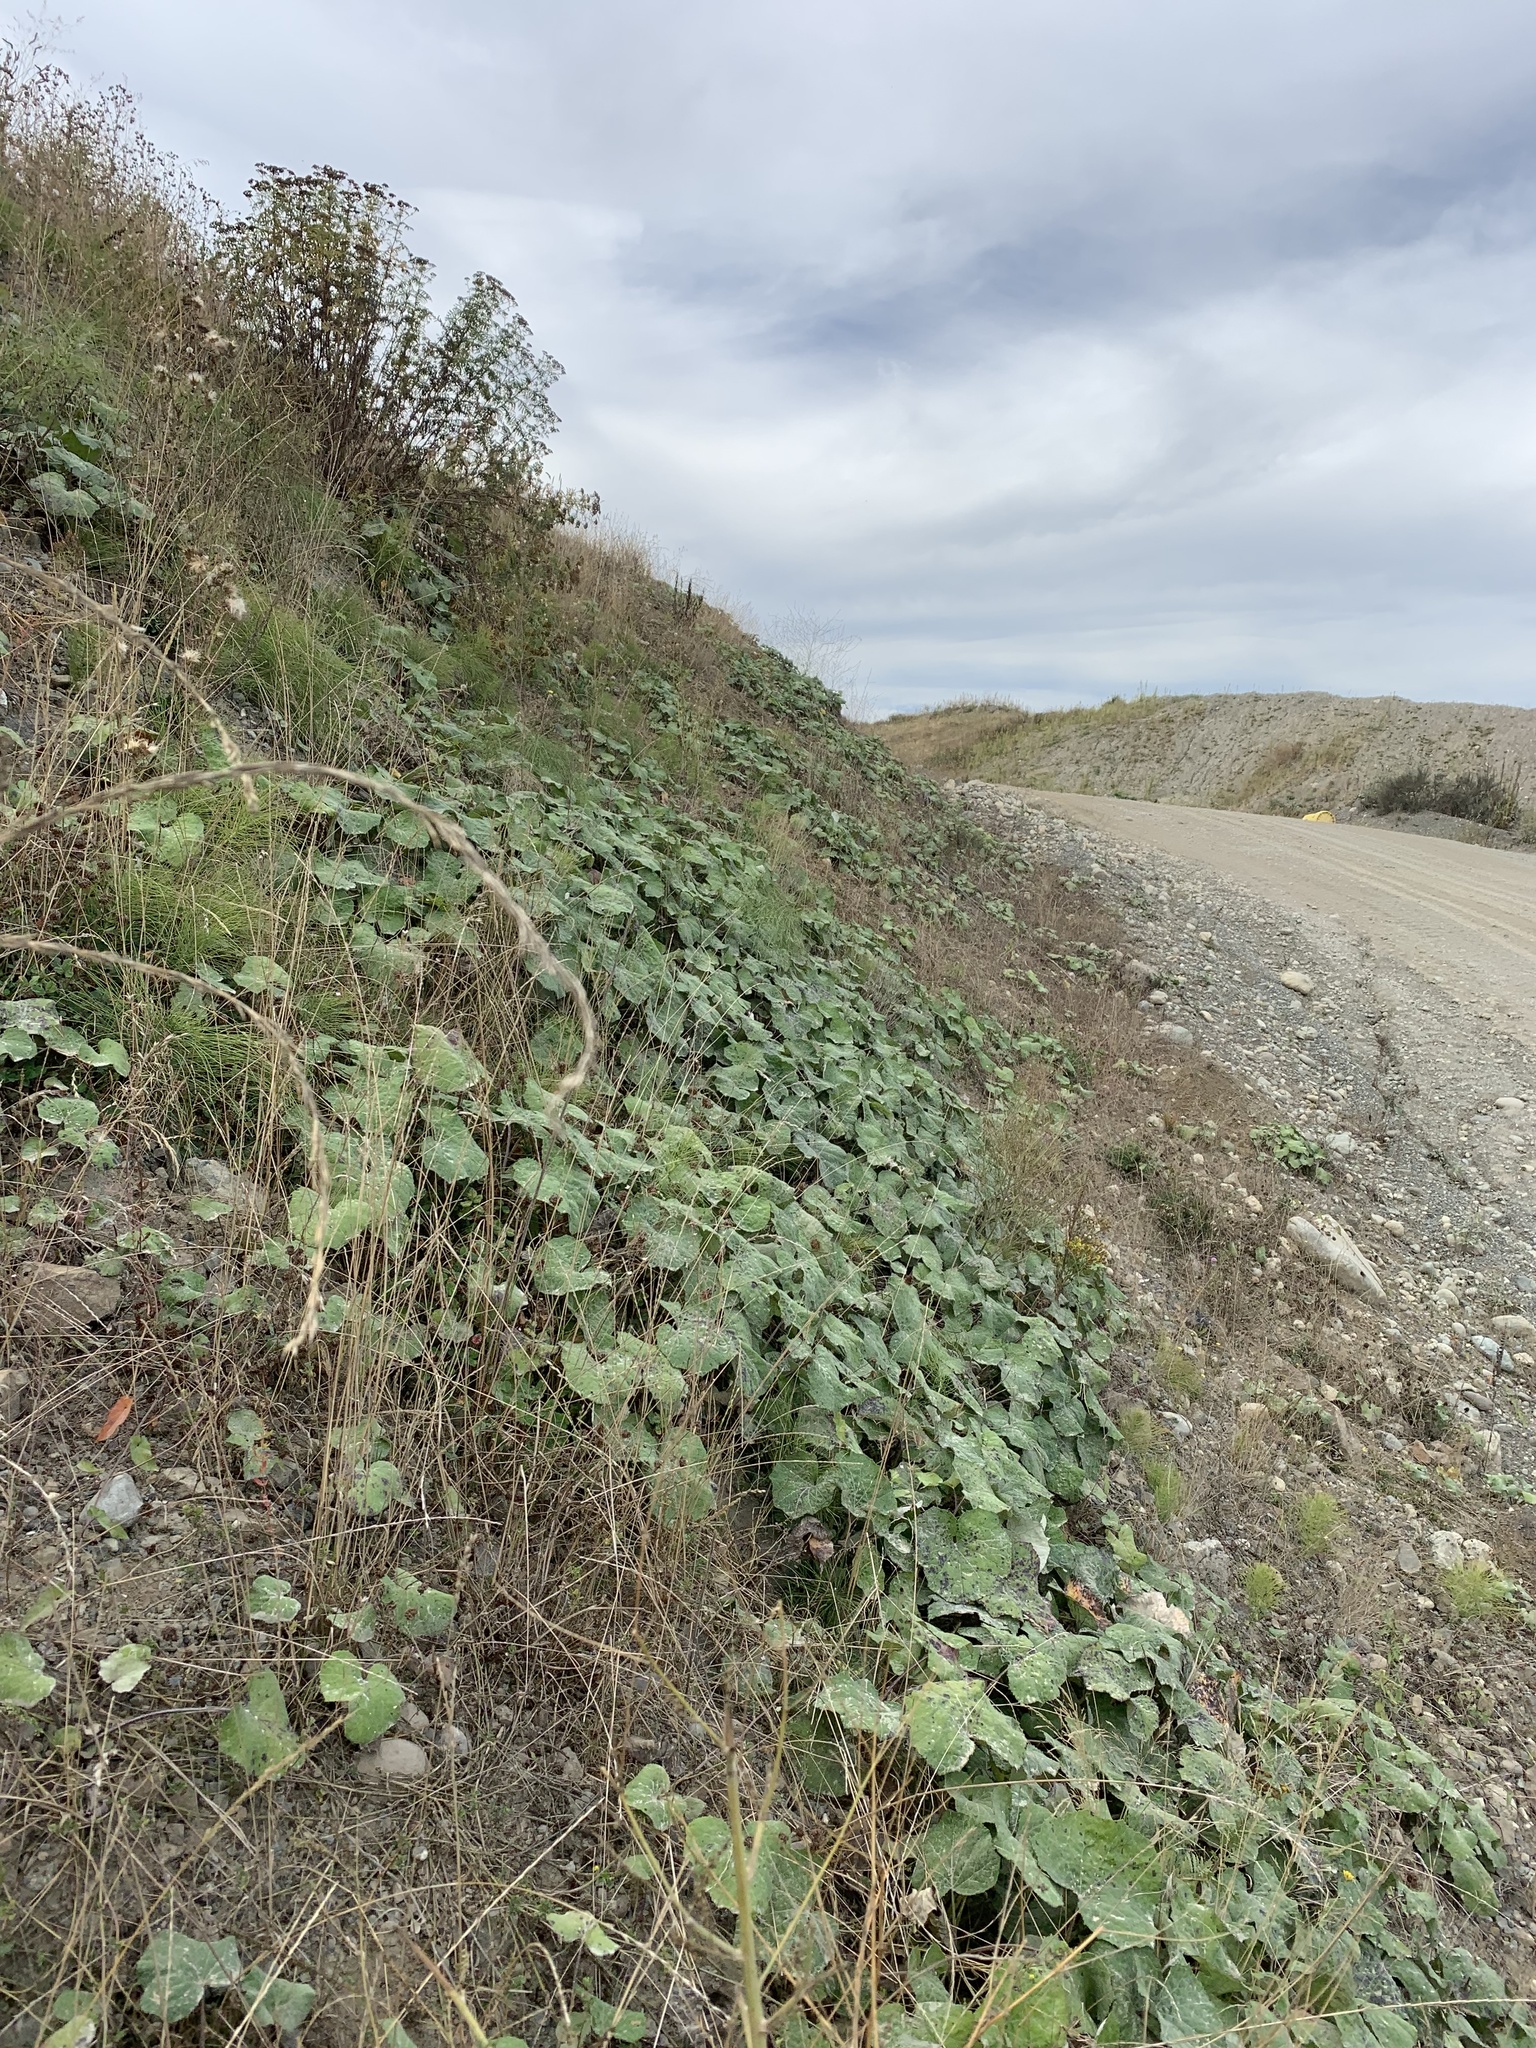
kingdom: Plantae
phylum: Tracheophyta
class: Magnoliopsida
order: Asterales
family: Asteraceae
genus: Tussilago
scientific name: Tussilago farfara
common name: Coltsfoot
